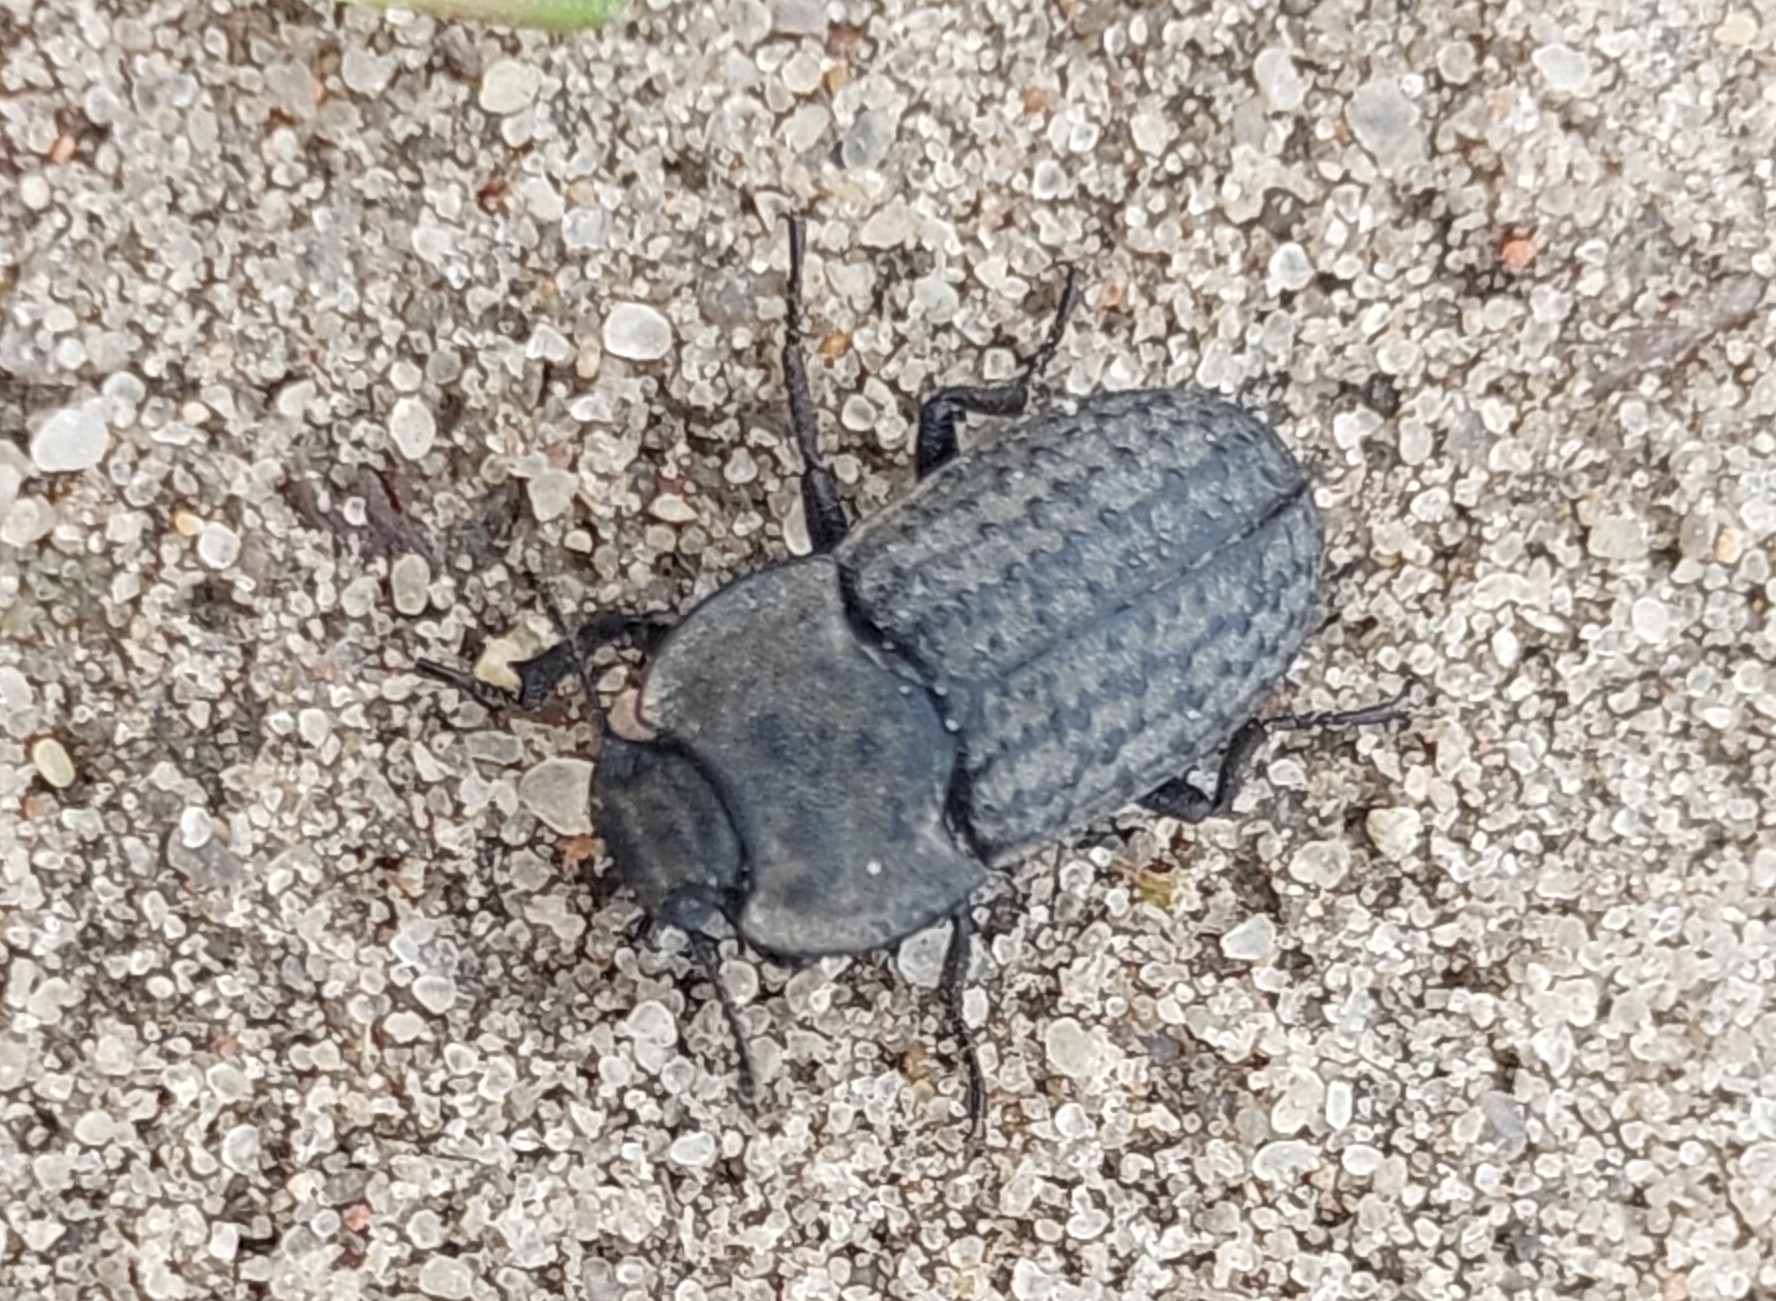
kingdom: Animalia
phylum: Arthropoda
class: Insecta
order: Coleoptera
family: Tenebrionidae
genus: Opatrum
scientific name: Opatrum sabulosum
